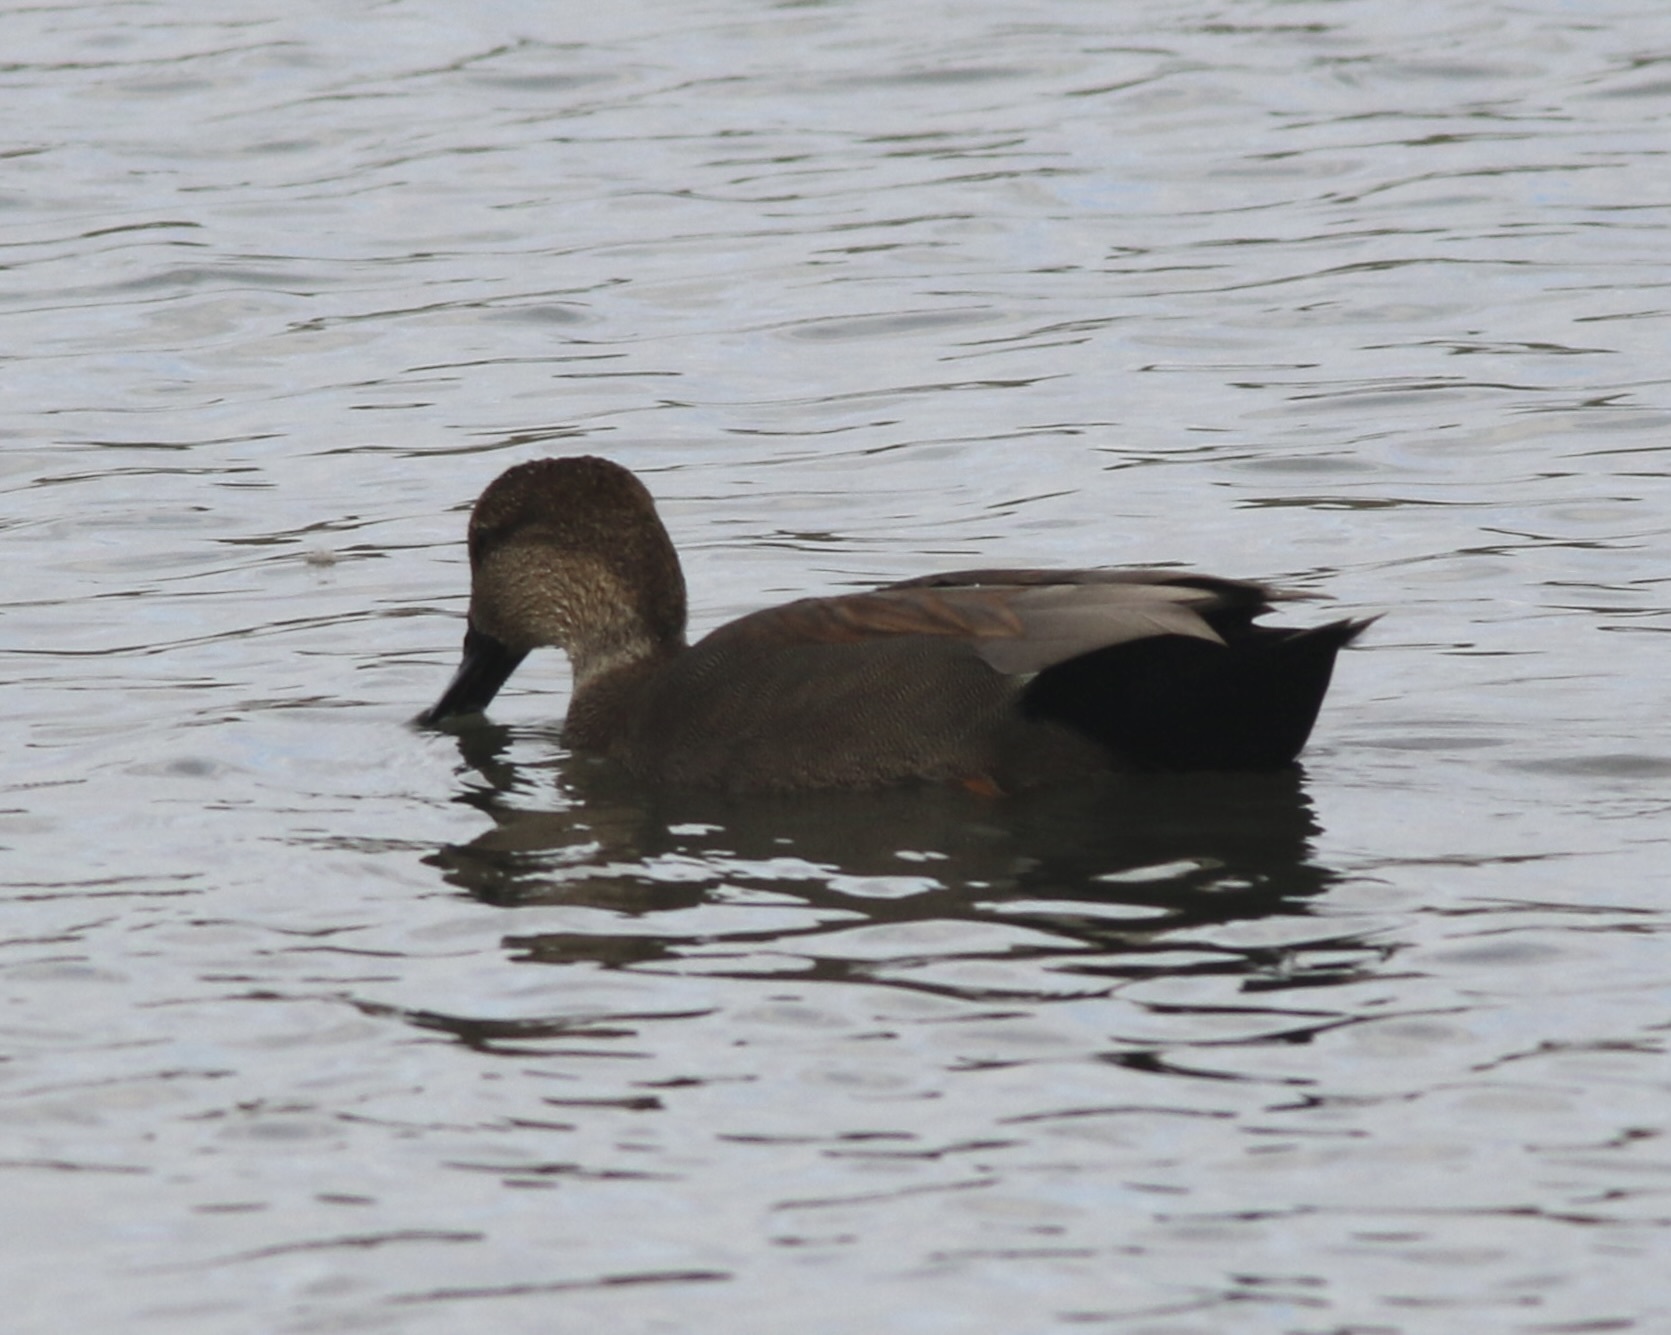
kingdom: Animalia
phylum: Chordata
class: Aves
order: Anseriformes
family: Anatidae
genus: Mareca
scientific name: Mareca strepera
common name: Gadwall
